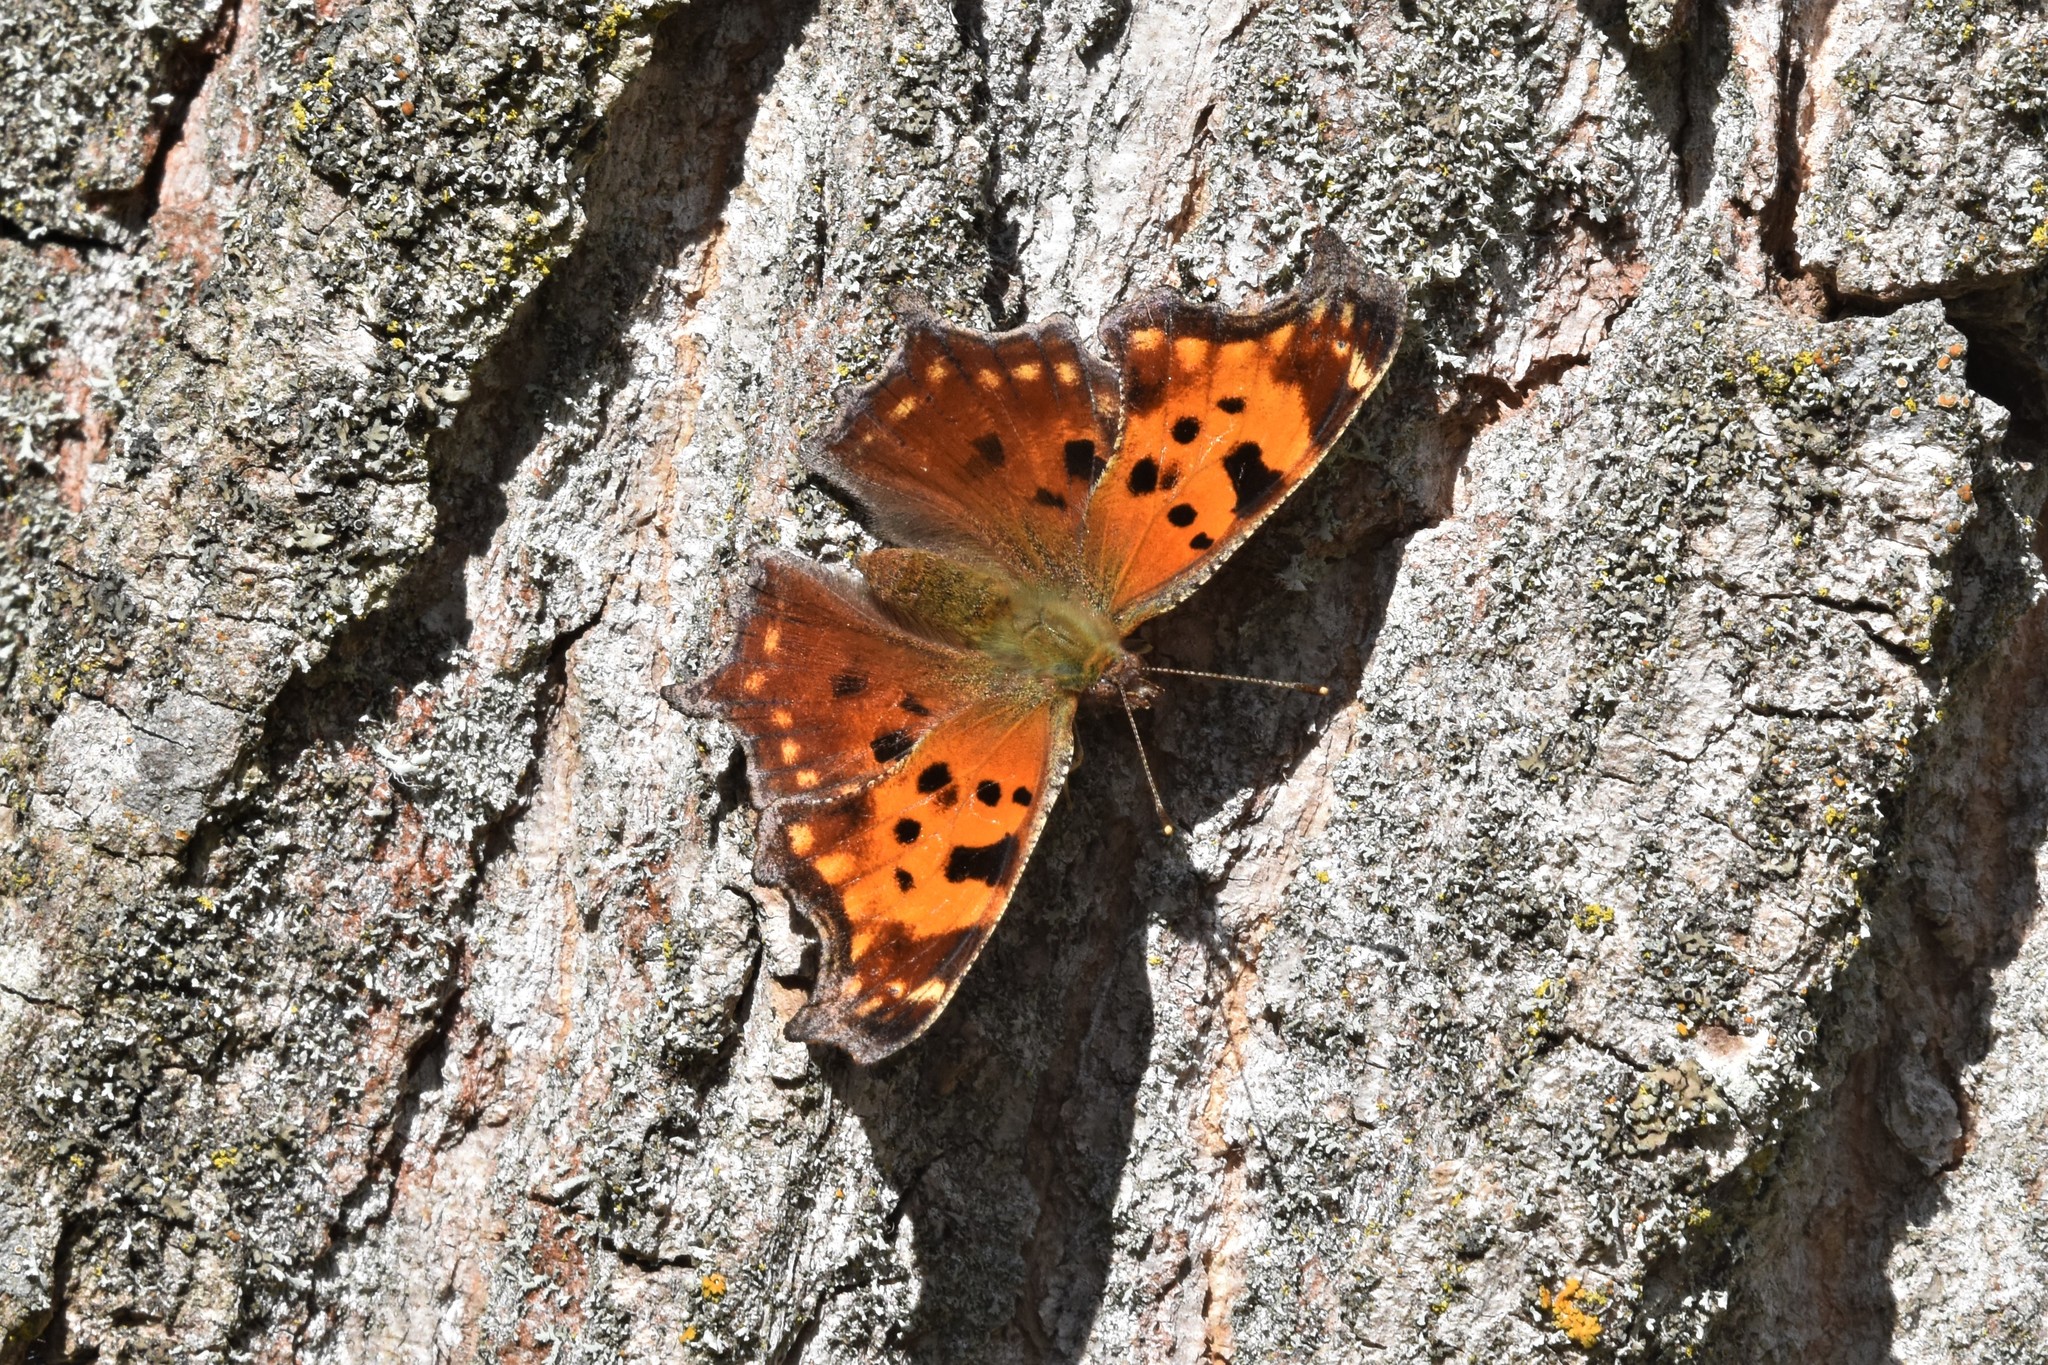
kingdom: Animalia
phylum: Arthropoda
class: Insecta
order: Lepidoptera
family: Nymphalidae
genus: Polygonia
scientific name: Polygonia comma
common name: Eastern comma
